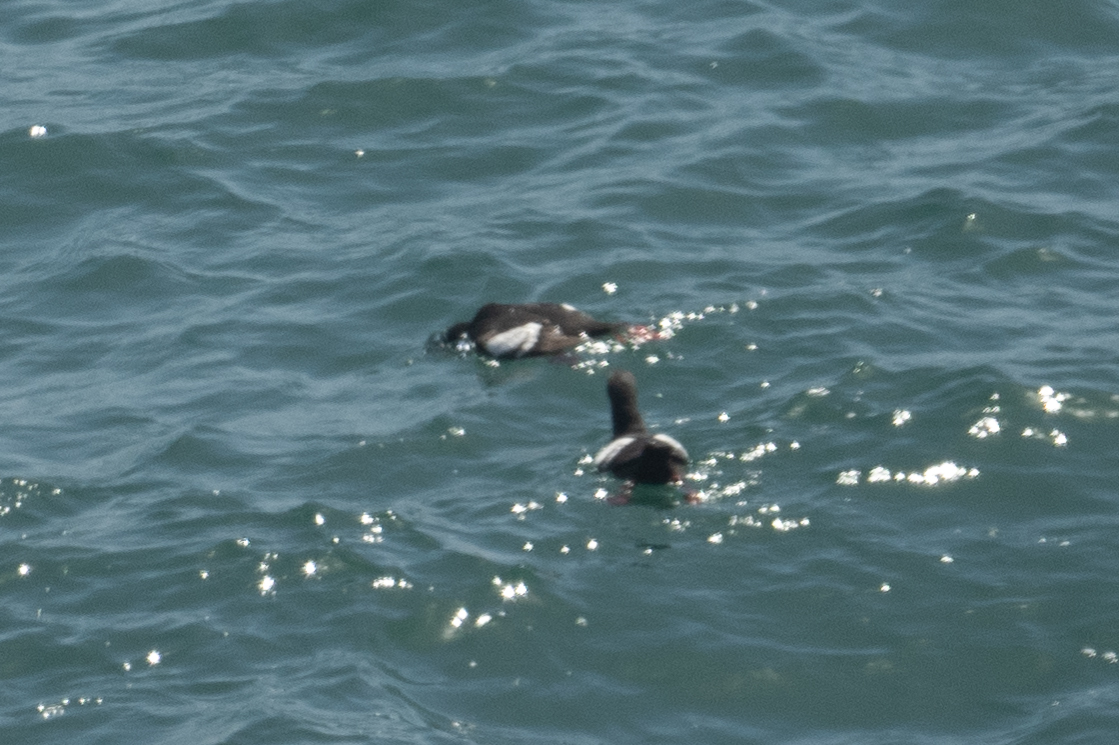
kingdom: Animalia
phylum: Chordata
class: Aves
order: Charadriiformes
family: Alcidae
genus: Cepphus
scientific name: Cepphus columba
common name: Pigeon guillemot
